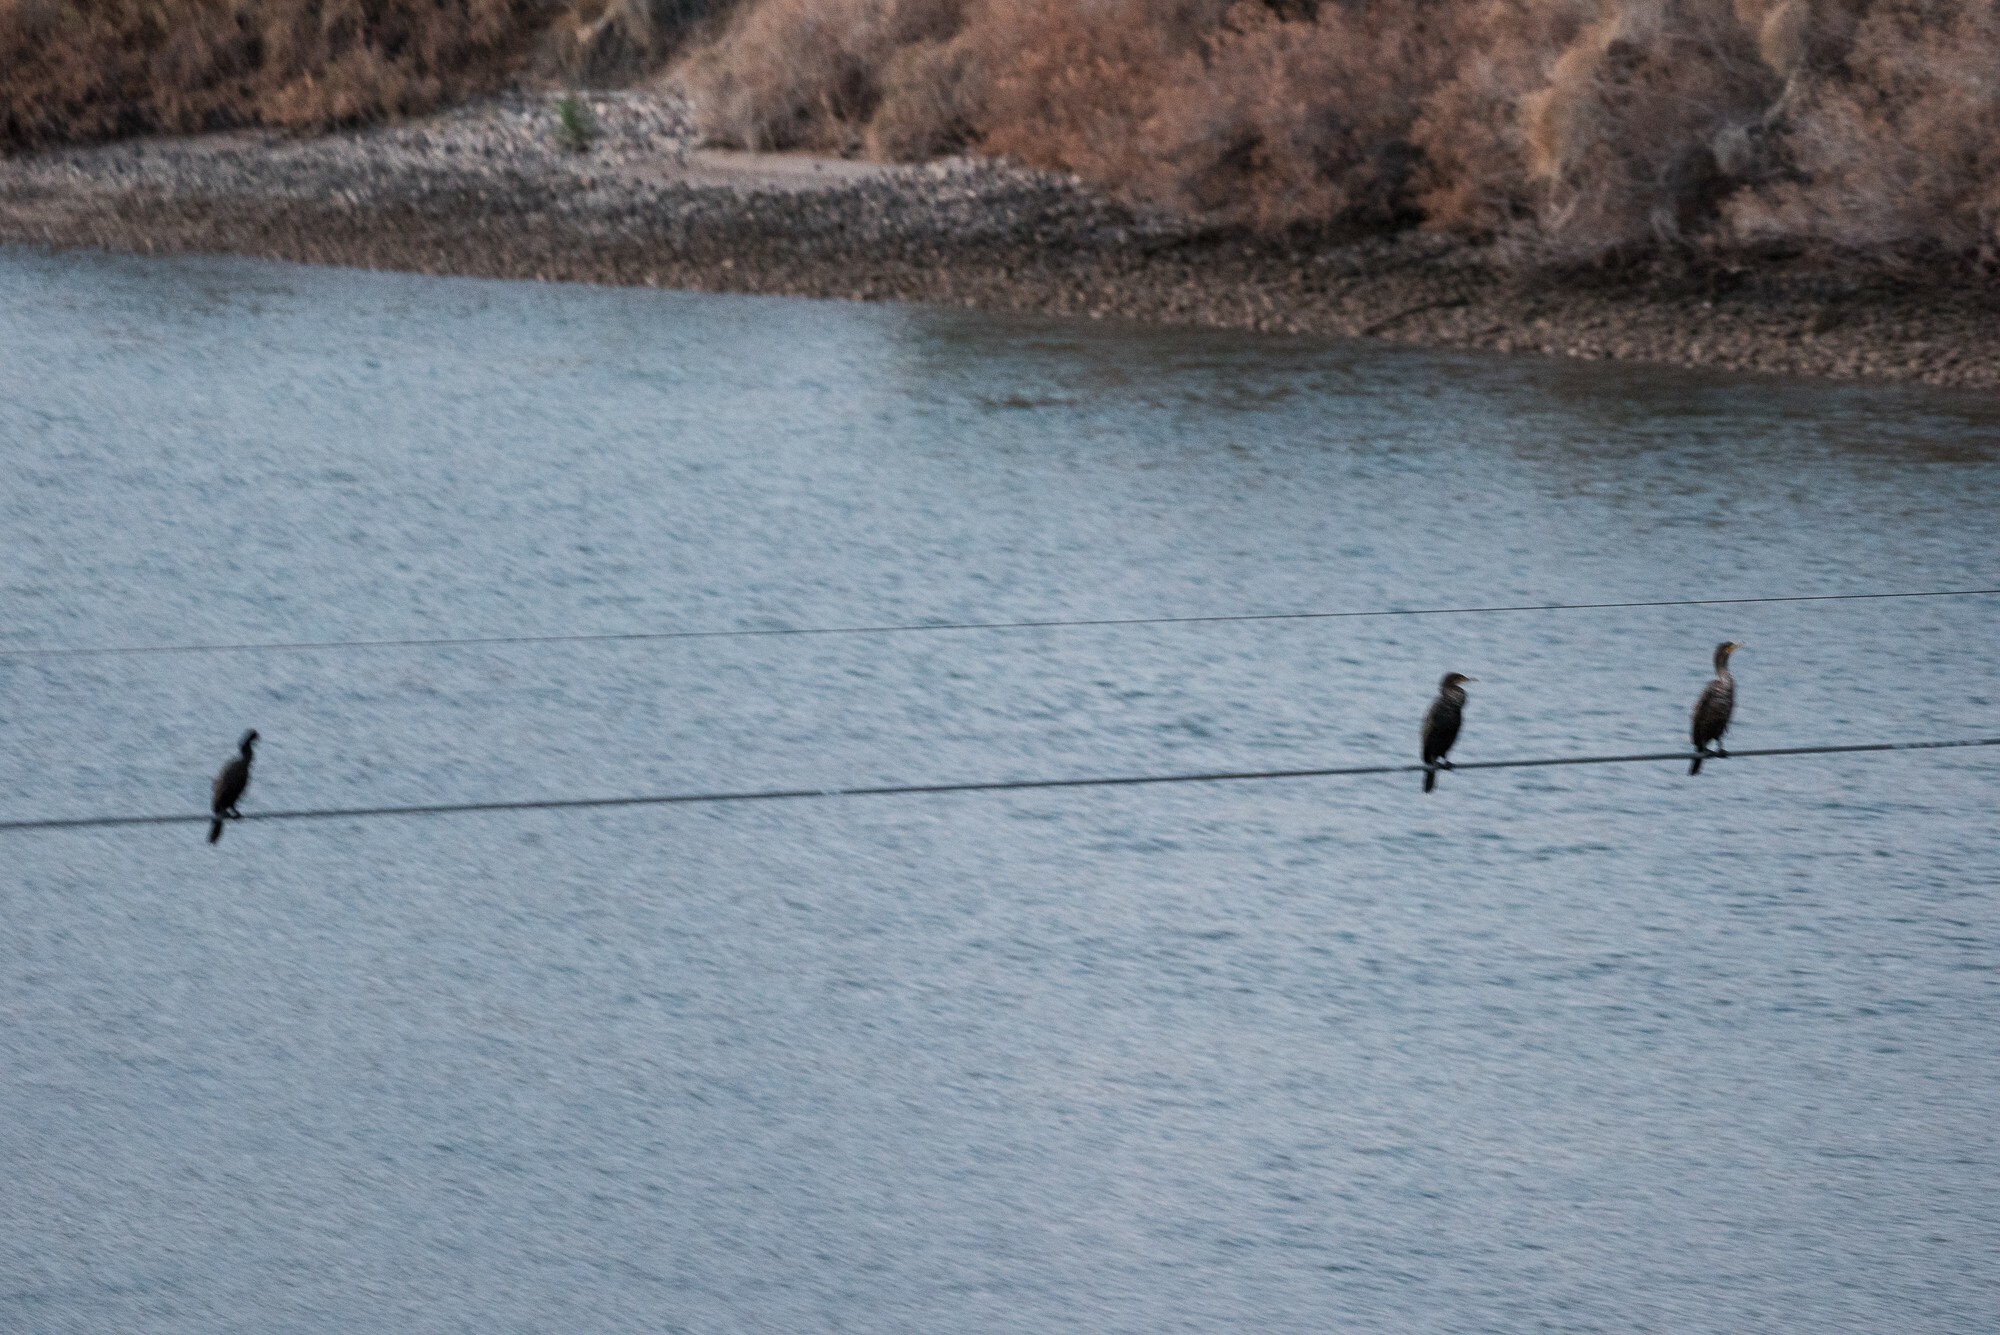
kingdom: Animalia
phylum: Chordata
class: Aves
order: Suliformes
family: Phalacrocoracidae
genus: Phalacrocorax
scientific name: Phalacrocorax brasilianus
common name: Neotropic cormorant
